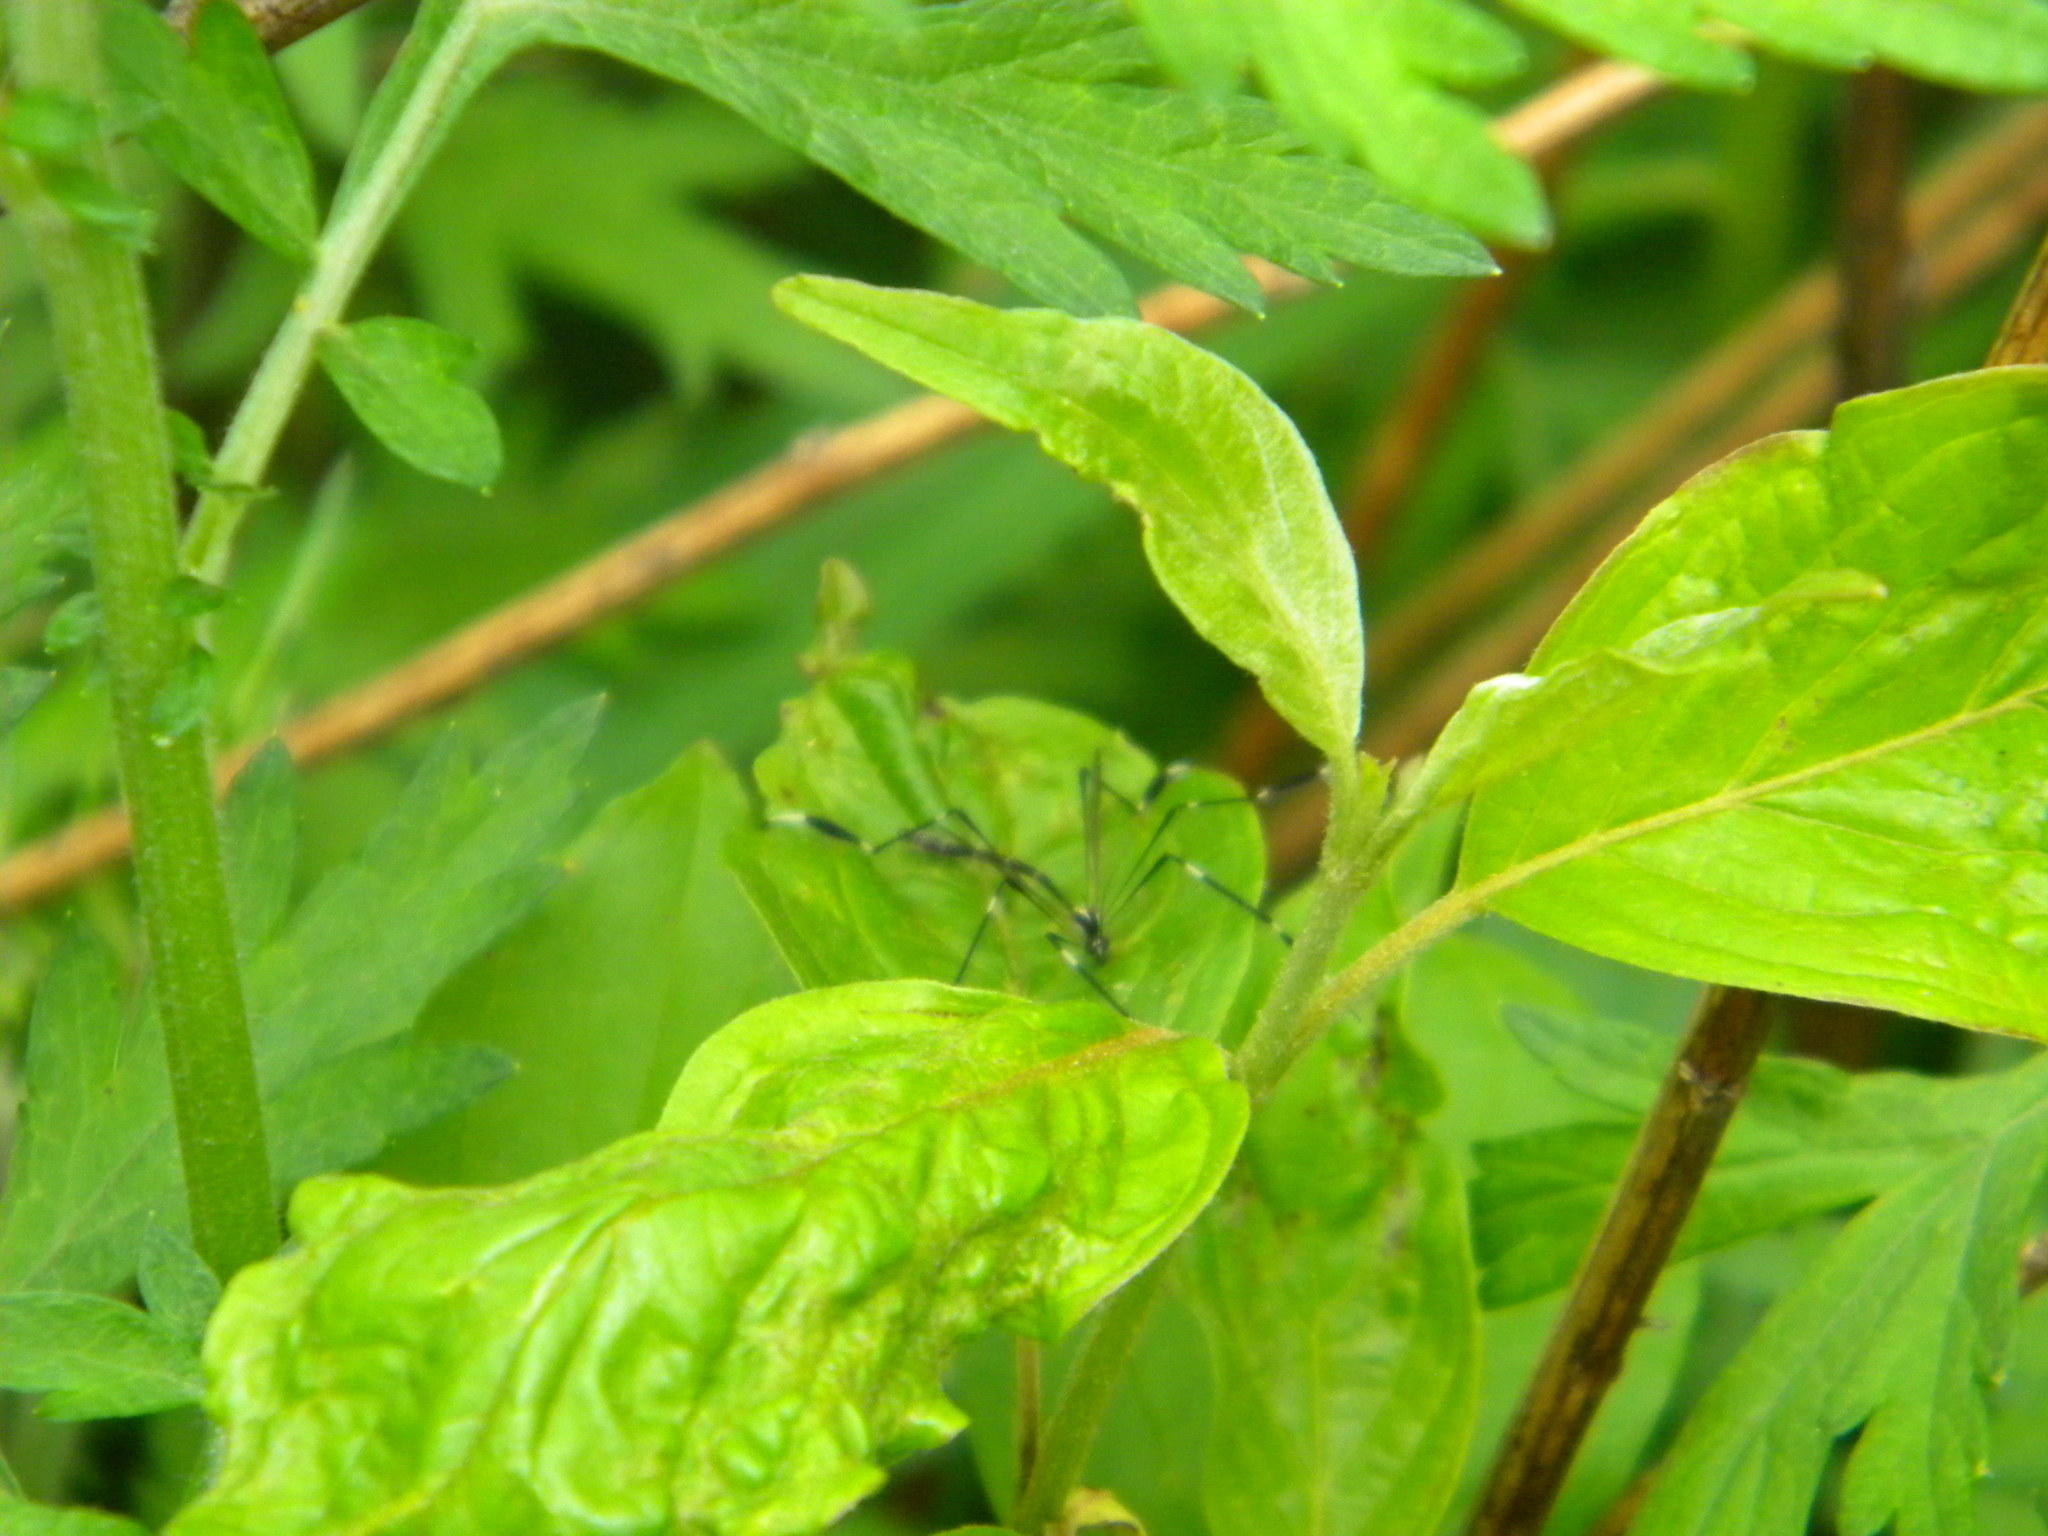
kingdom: Animalia
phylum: Arthropoda
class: Insecta
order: Diptera
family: Ptychopteridae
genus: Bittacomorpha
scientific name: Bittacomorpha clavipes
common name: Eastern phantom crane fly
